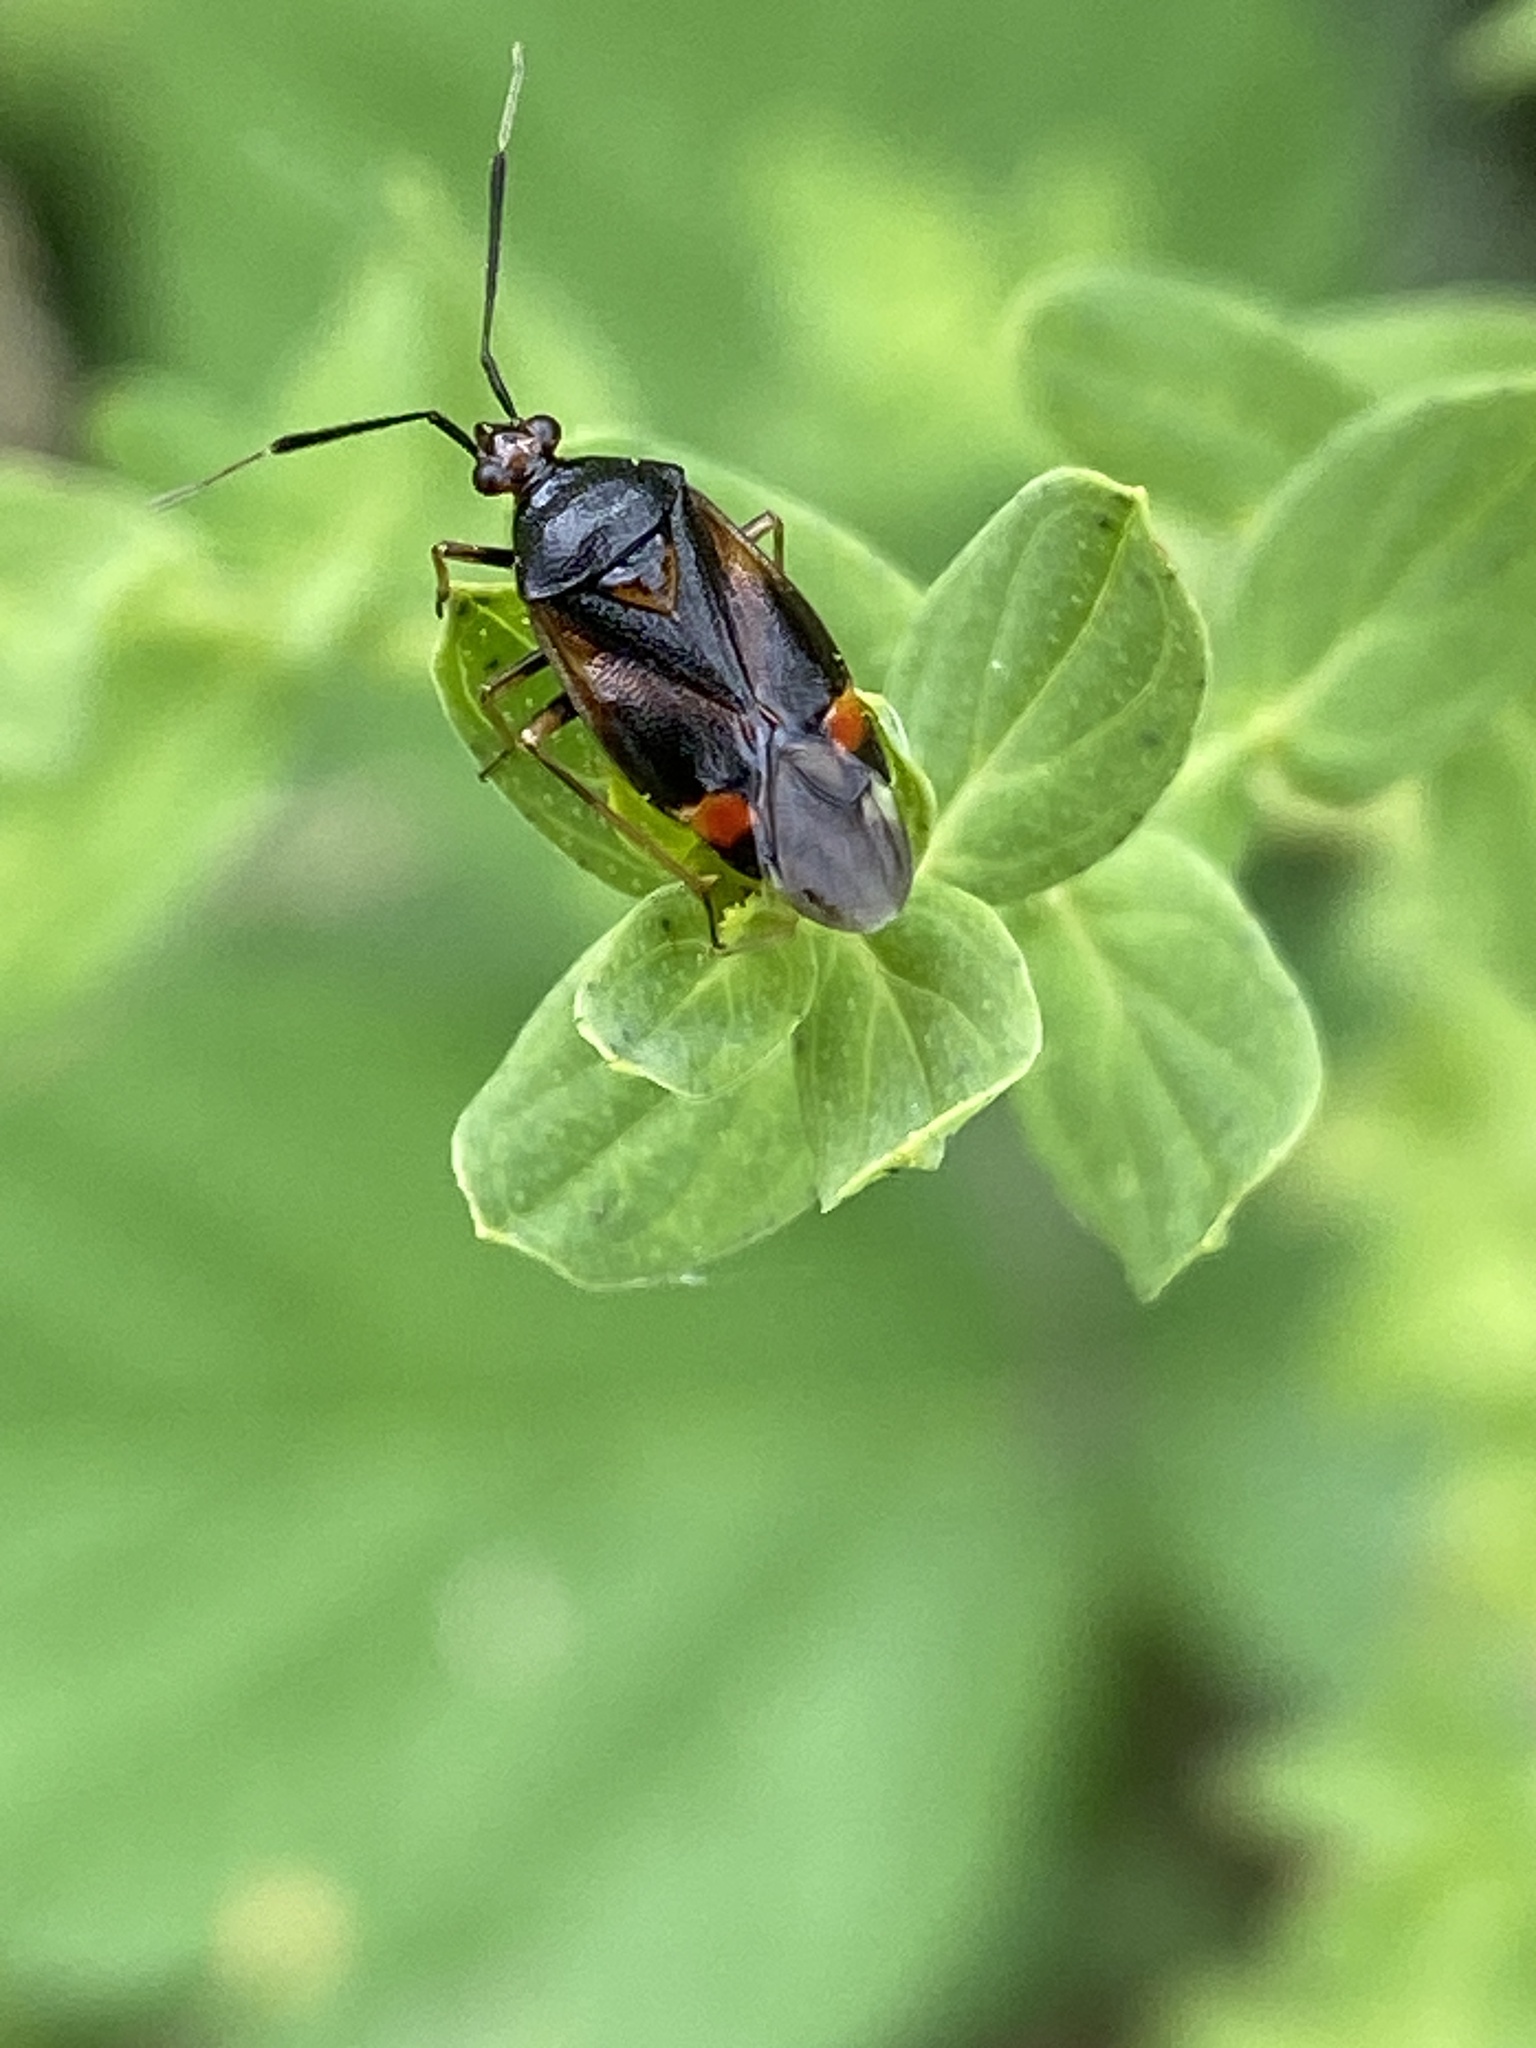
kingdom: Animalia
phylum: Arthropoda
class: Insecta
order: Hemiptera
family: Miridae
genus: Deraeocoris
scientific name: Deraeocoris ruber
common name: Plant bug
